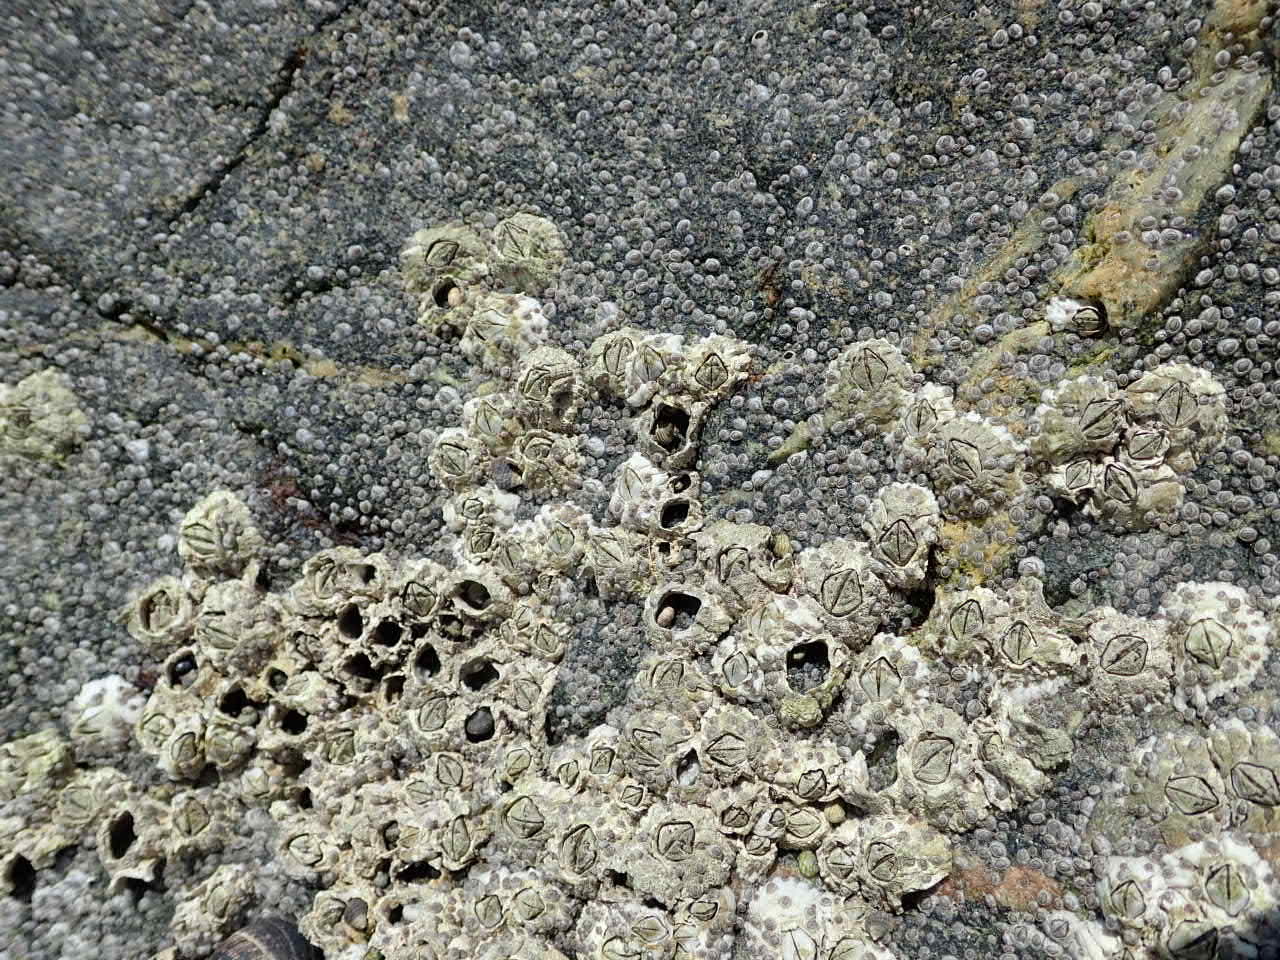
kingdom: Animalia
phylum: Arthropoda
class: Maxillopoda
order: Sessilia
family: Archaeobalanidae
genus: Semibalanus
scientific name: Semibalanus balanoides
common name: Acorn barnacle
